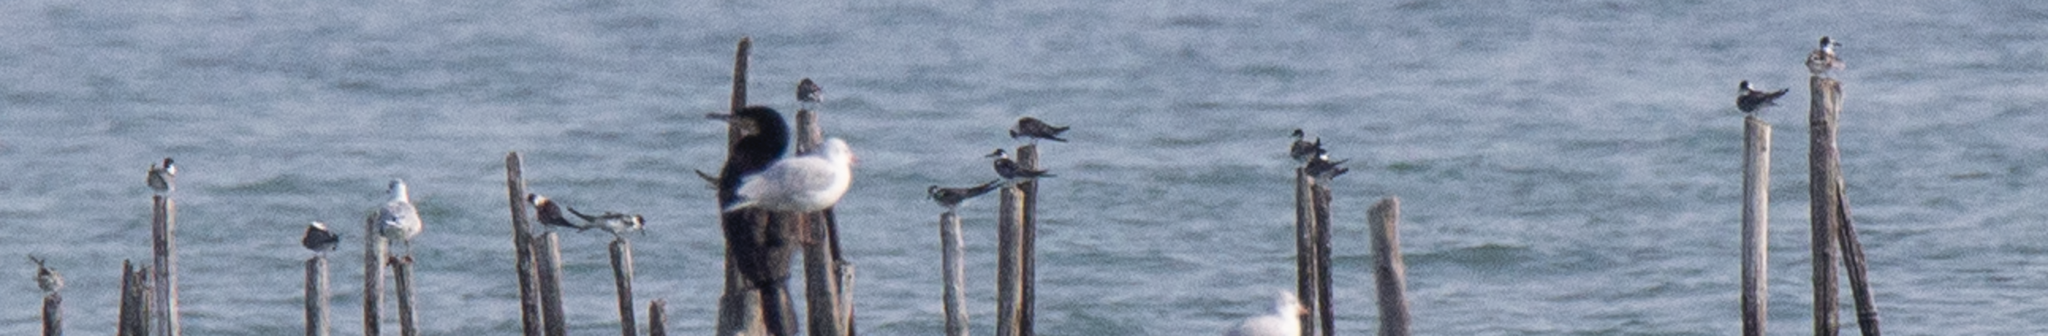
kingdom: Animalia
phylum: Chordata
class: Aves
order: Charadriiformes
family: Laridae
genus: Chlidonias
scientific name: Chlidonias niger
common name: Black tern
